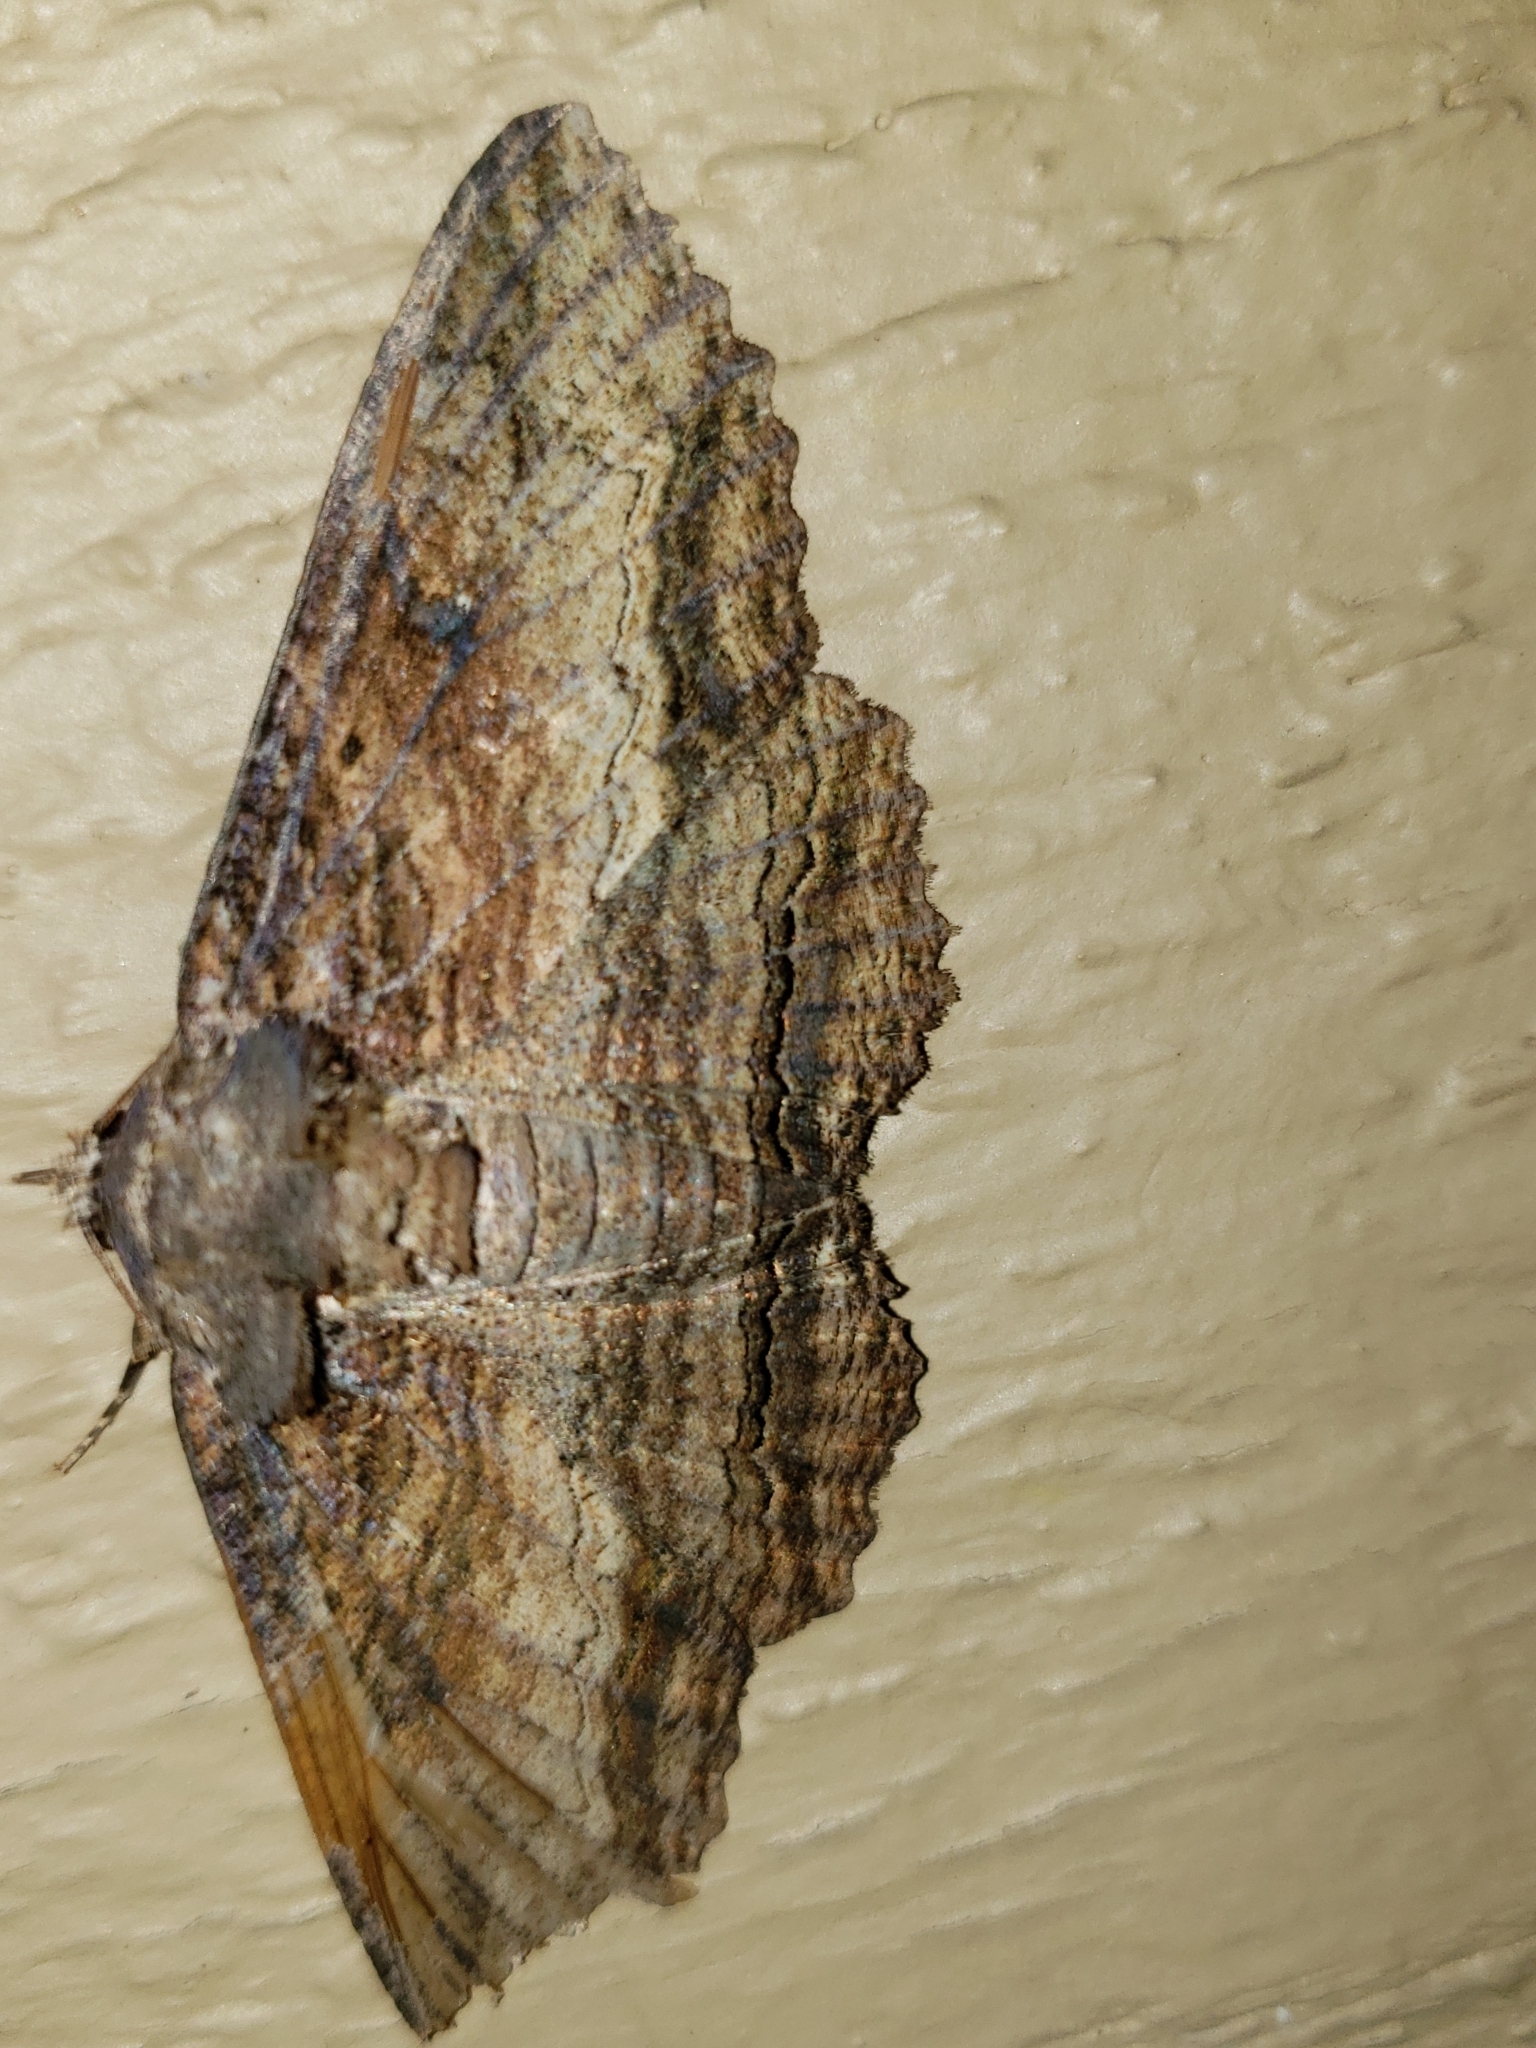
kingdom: Animalia
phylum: Arthropoda
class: Insecta
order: Lepidoptera
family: Erebidae
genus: Zale
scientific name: Zale lunata
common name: Lunate zale moth
